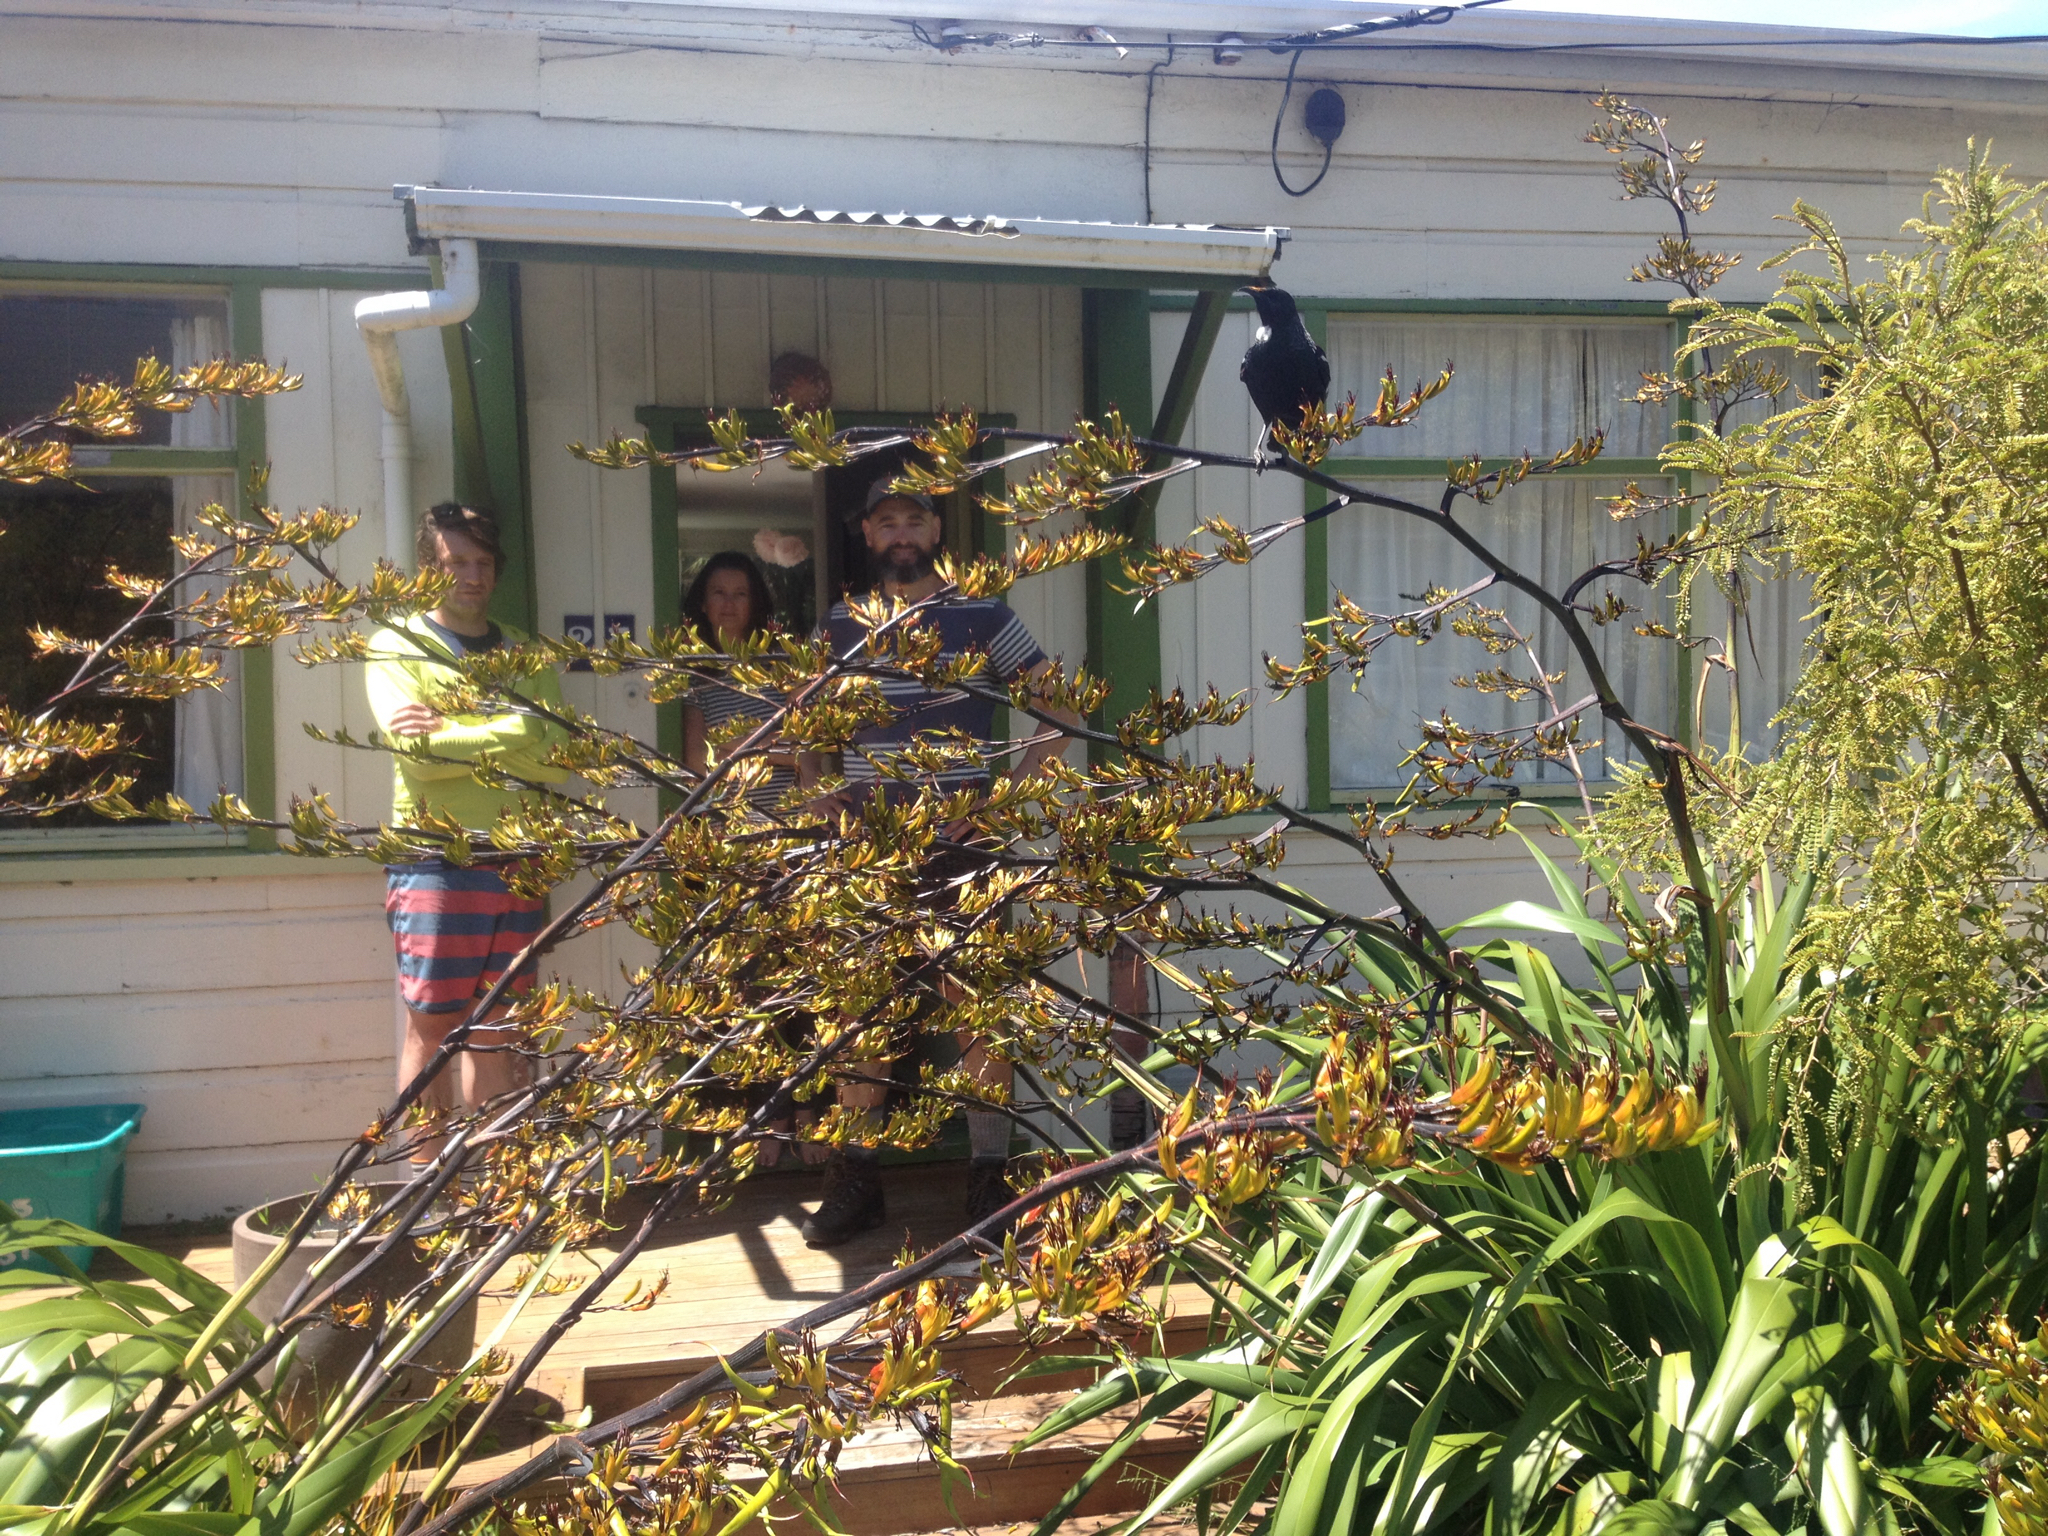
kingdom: Animalia
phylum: Chordata
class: Aves
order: Passeriformes
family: Meliphagidae
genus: Prosthemadera
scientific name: Prosthemadera novaeseelandiae
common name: Tui
